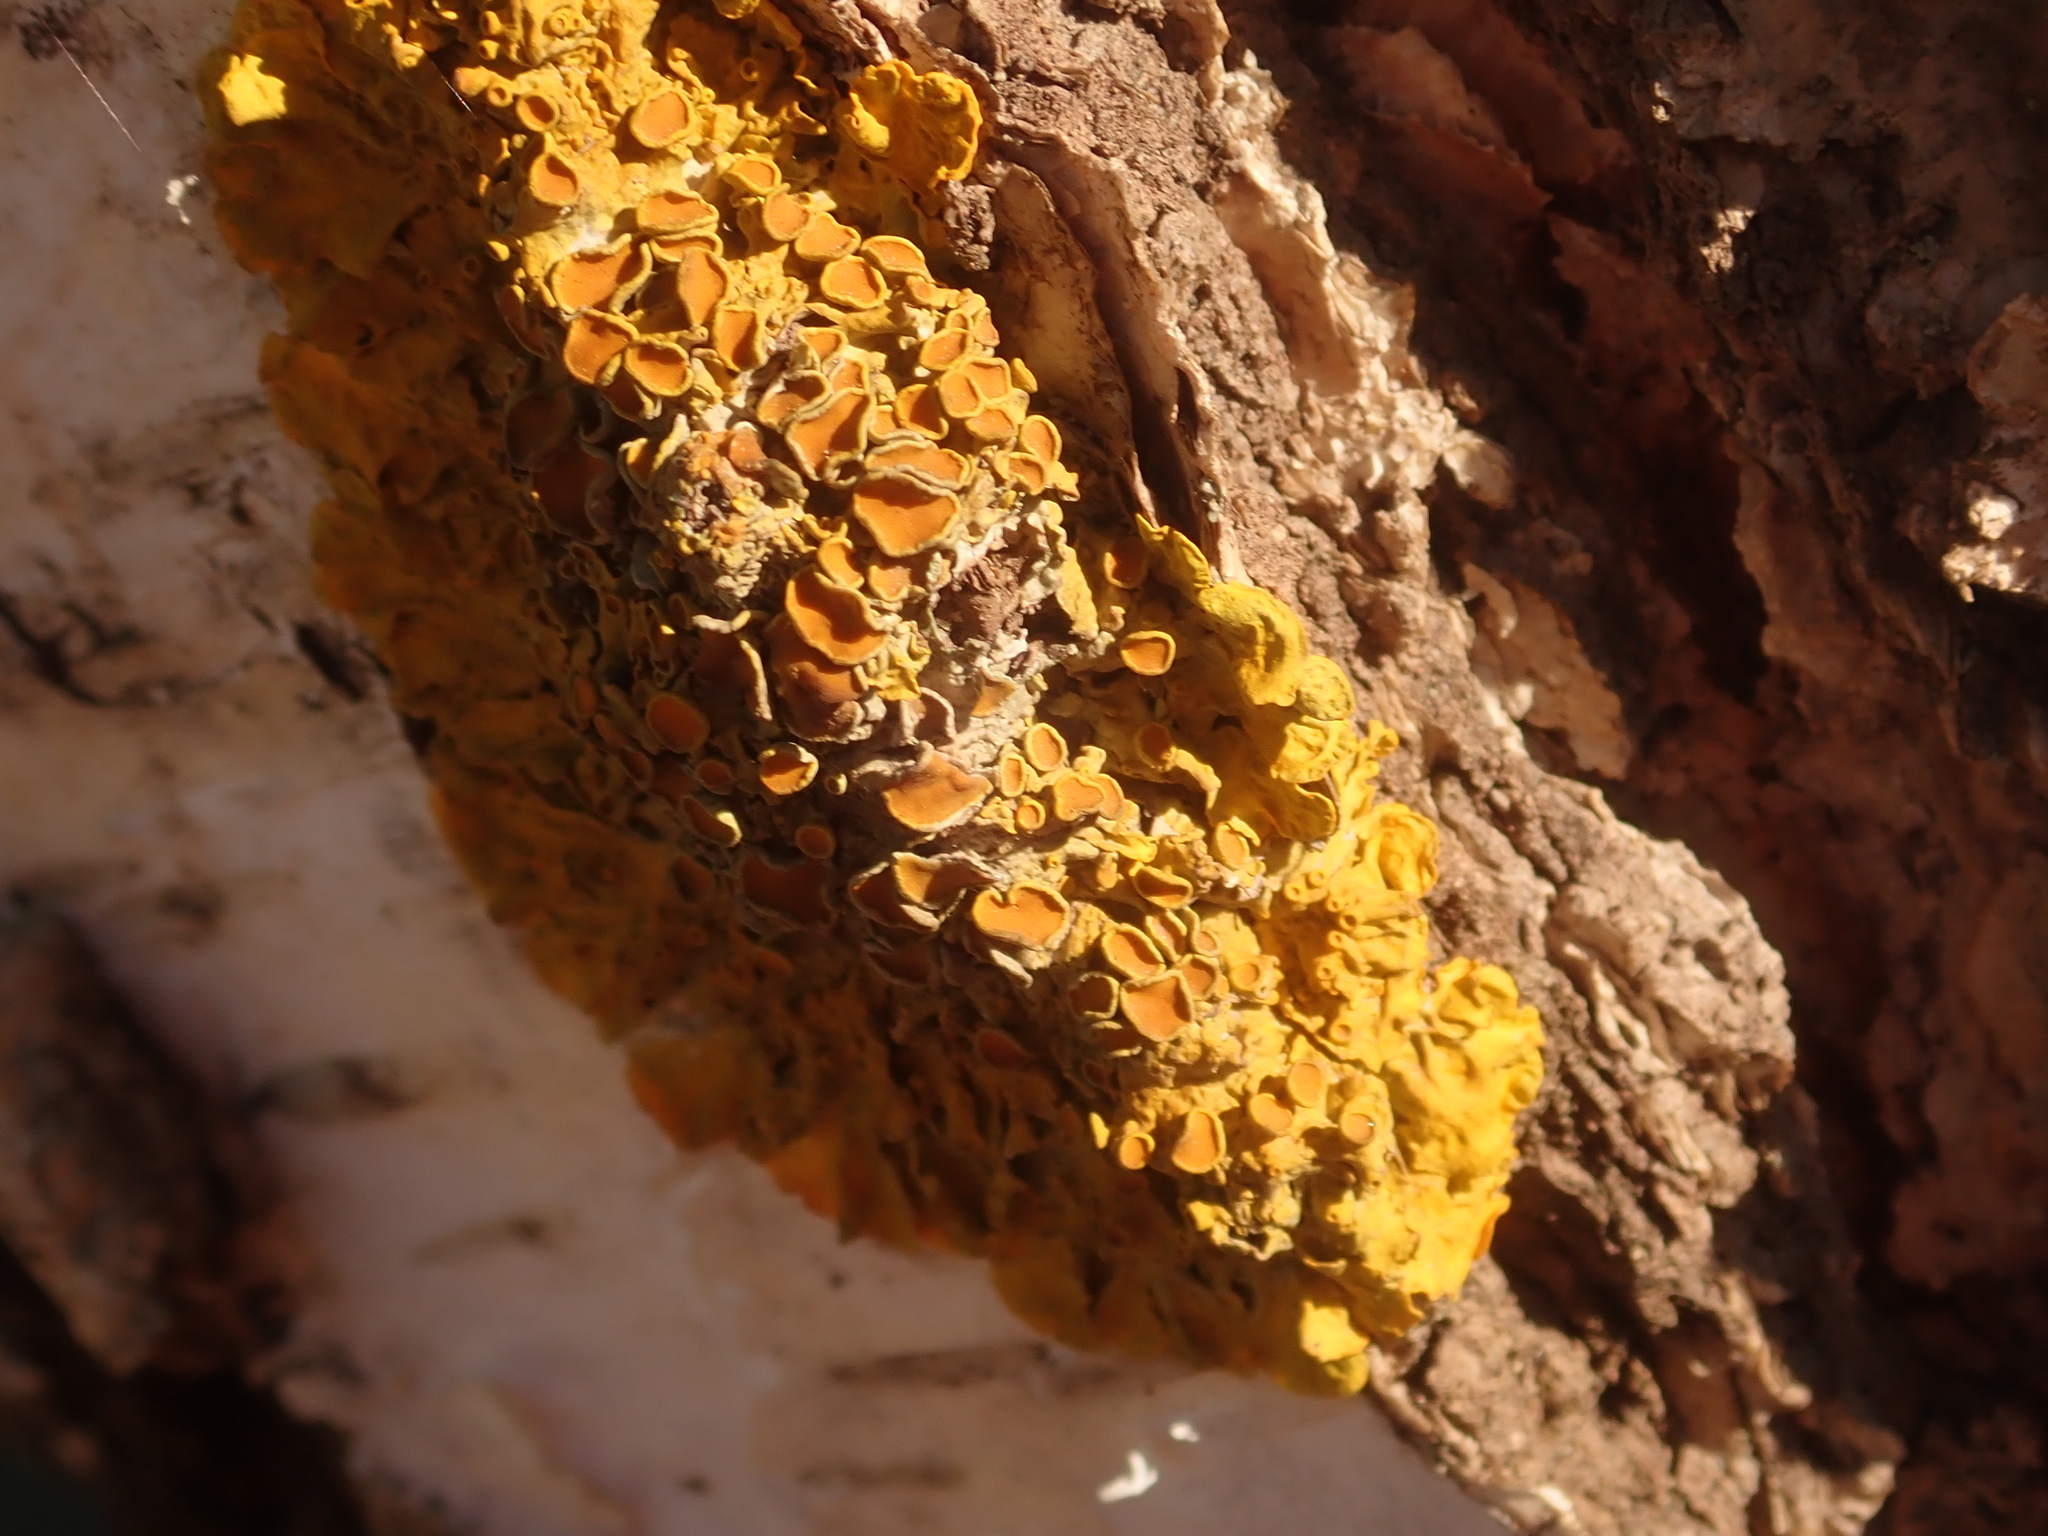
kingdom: Fungi
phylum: Ascomycota
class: Lecanoromycetes
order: Teloschistales
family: Teloschistaceae
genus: Xanthoria
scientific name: Xanthoria parietina
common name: Common orange lichen
